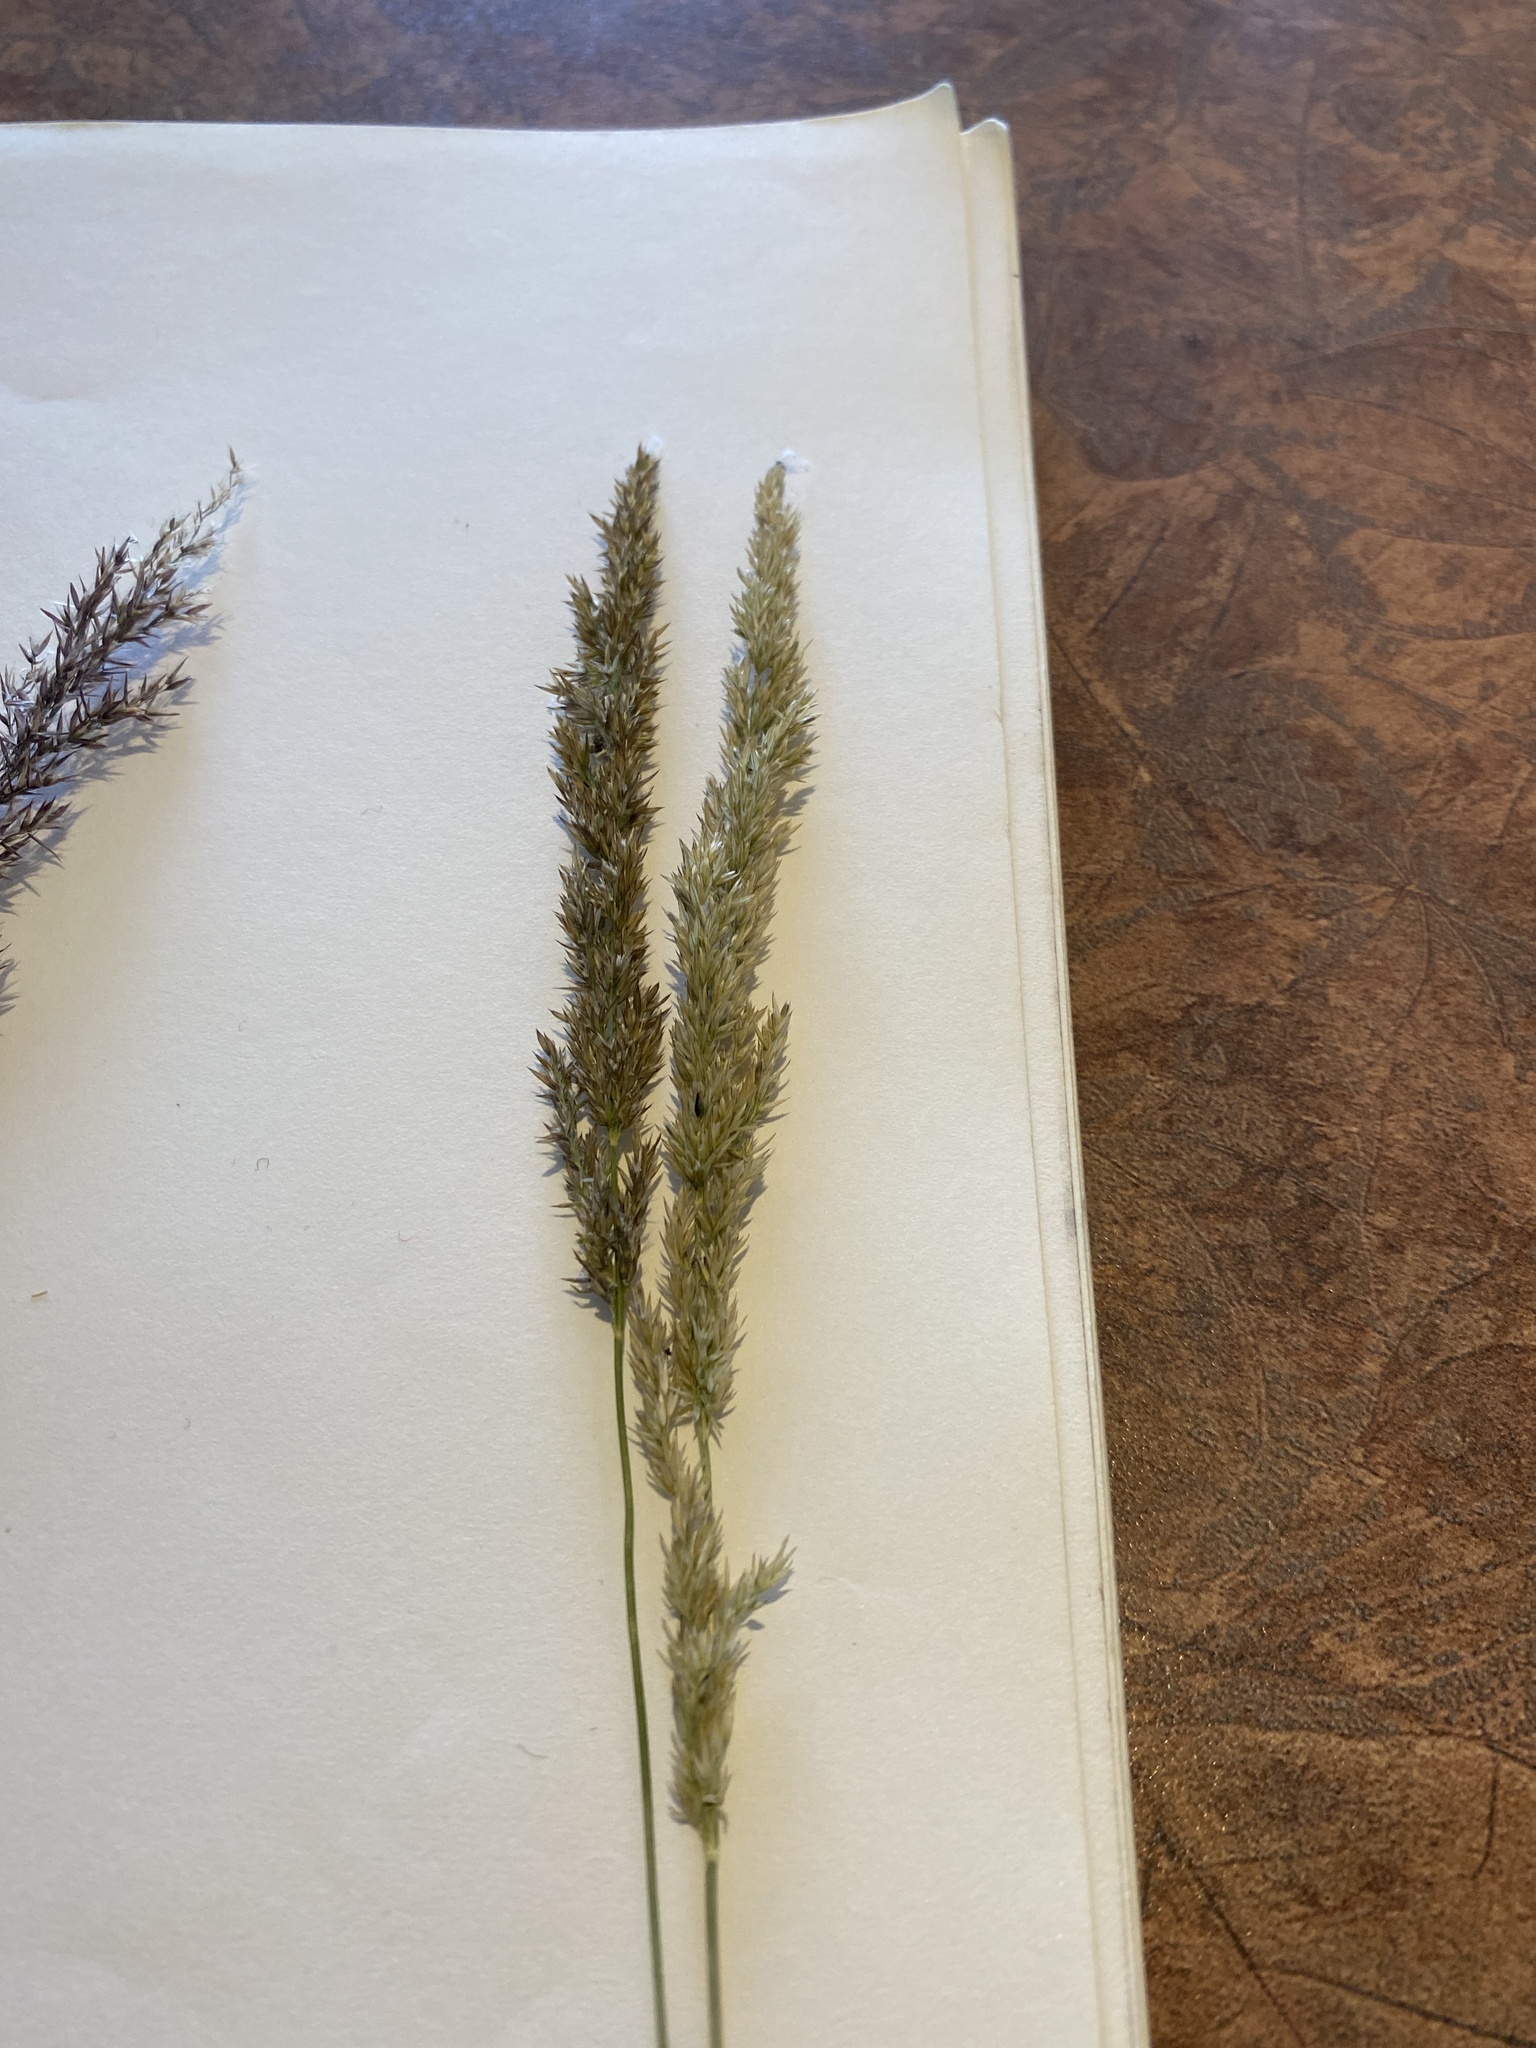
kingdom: Plantae
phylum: Tracheophyta
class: Liliopsida
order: Poales
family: Poaceae
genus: Calamagrostis
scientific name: Calamagrostis stricta
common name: Narrow small-reed
